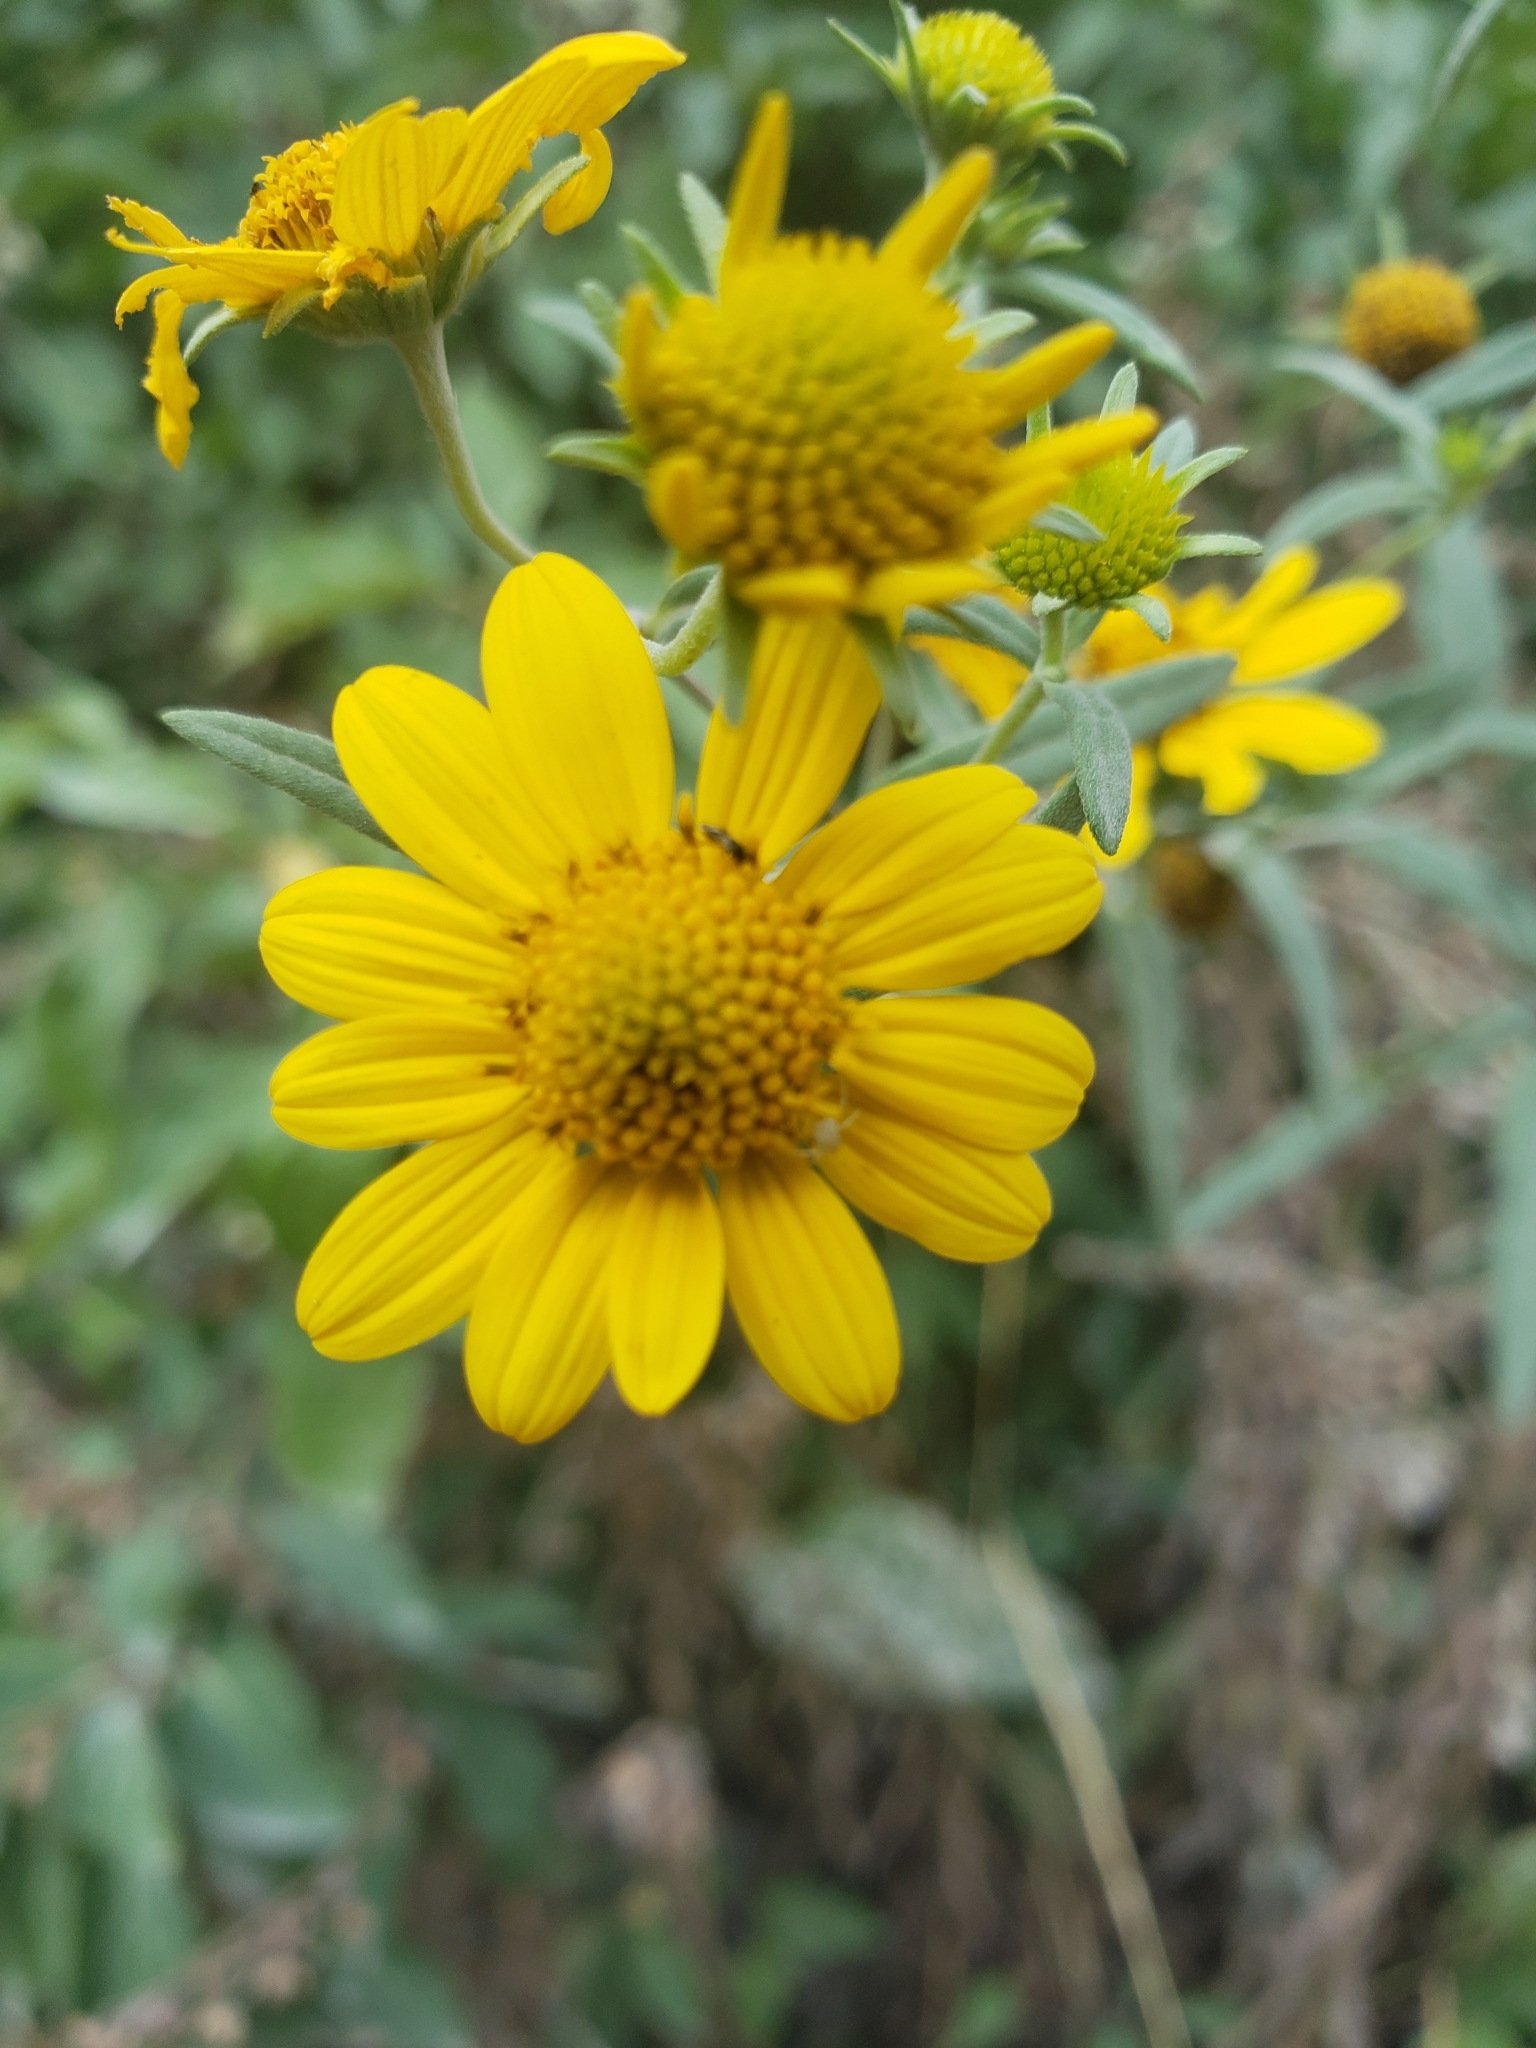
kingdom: Plantae
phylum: Tracheophyta
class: Magnoliopsida
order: Asterales
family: Asteraceae
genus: Heliomeris
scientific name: Heliomeris multiflora
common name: Showy goldeneye
